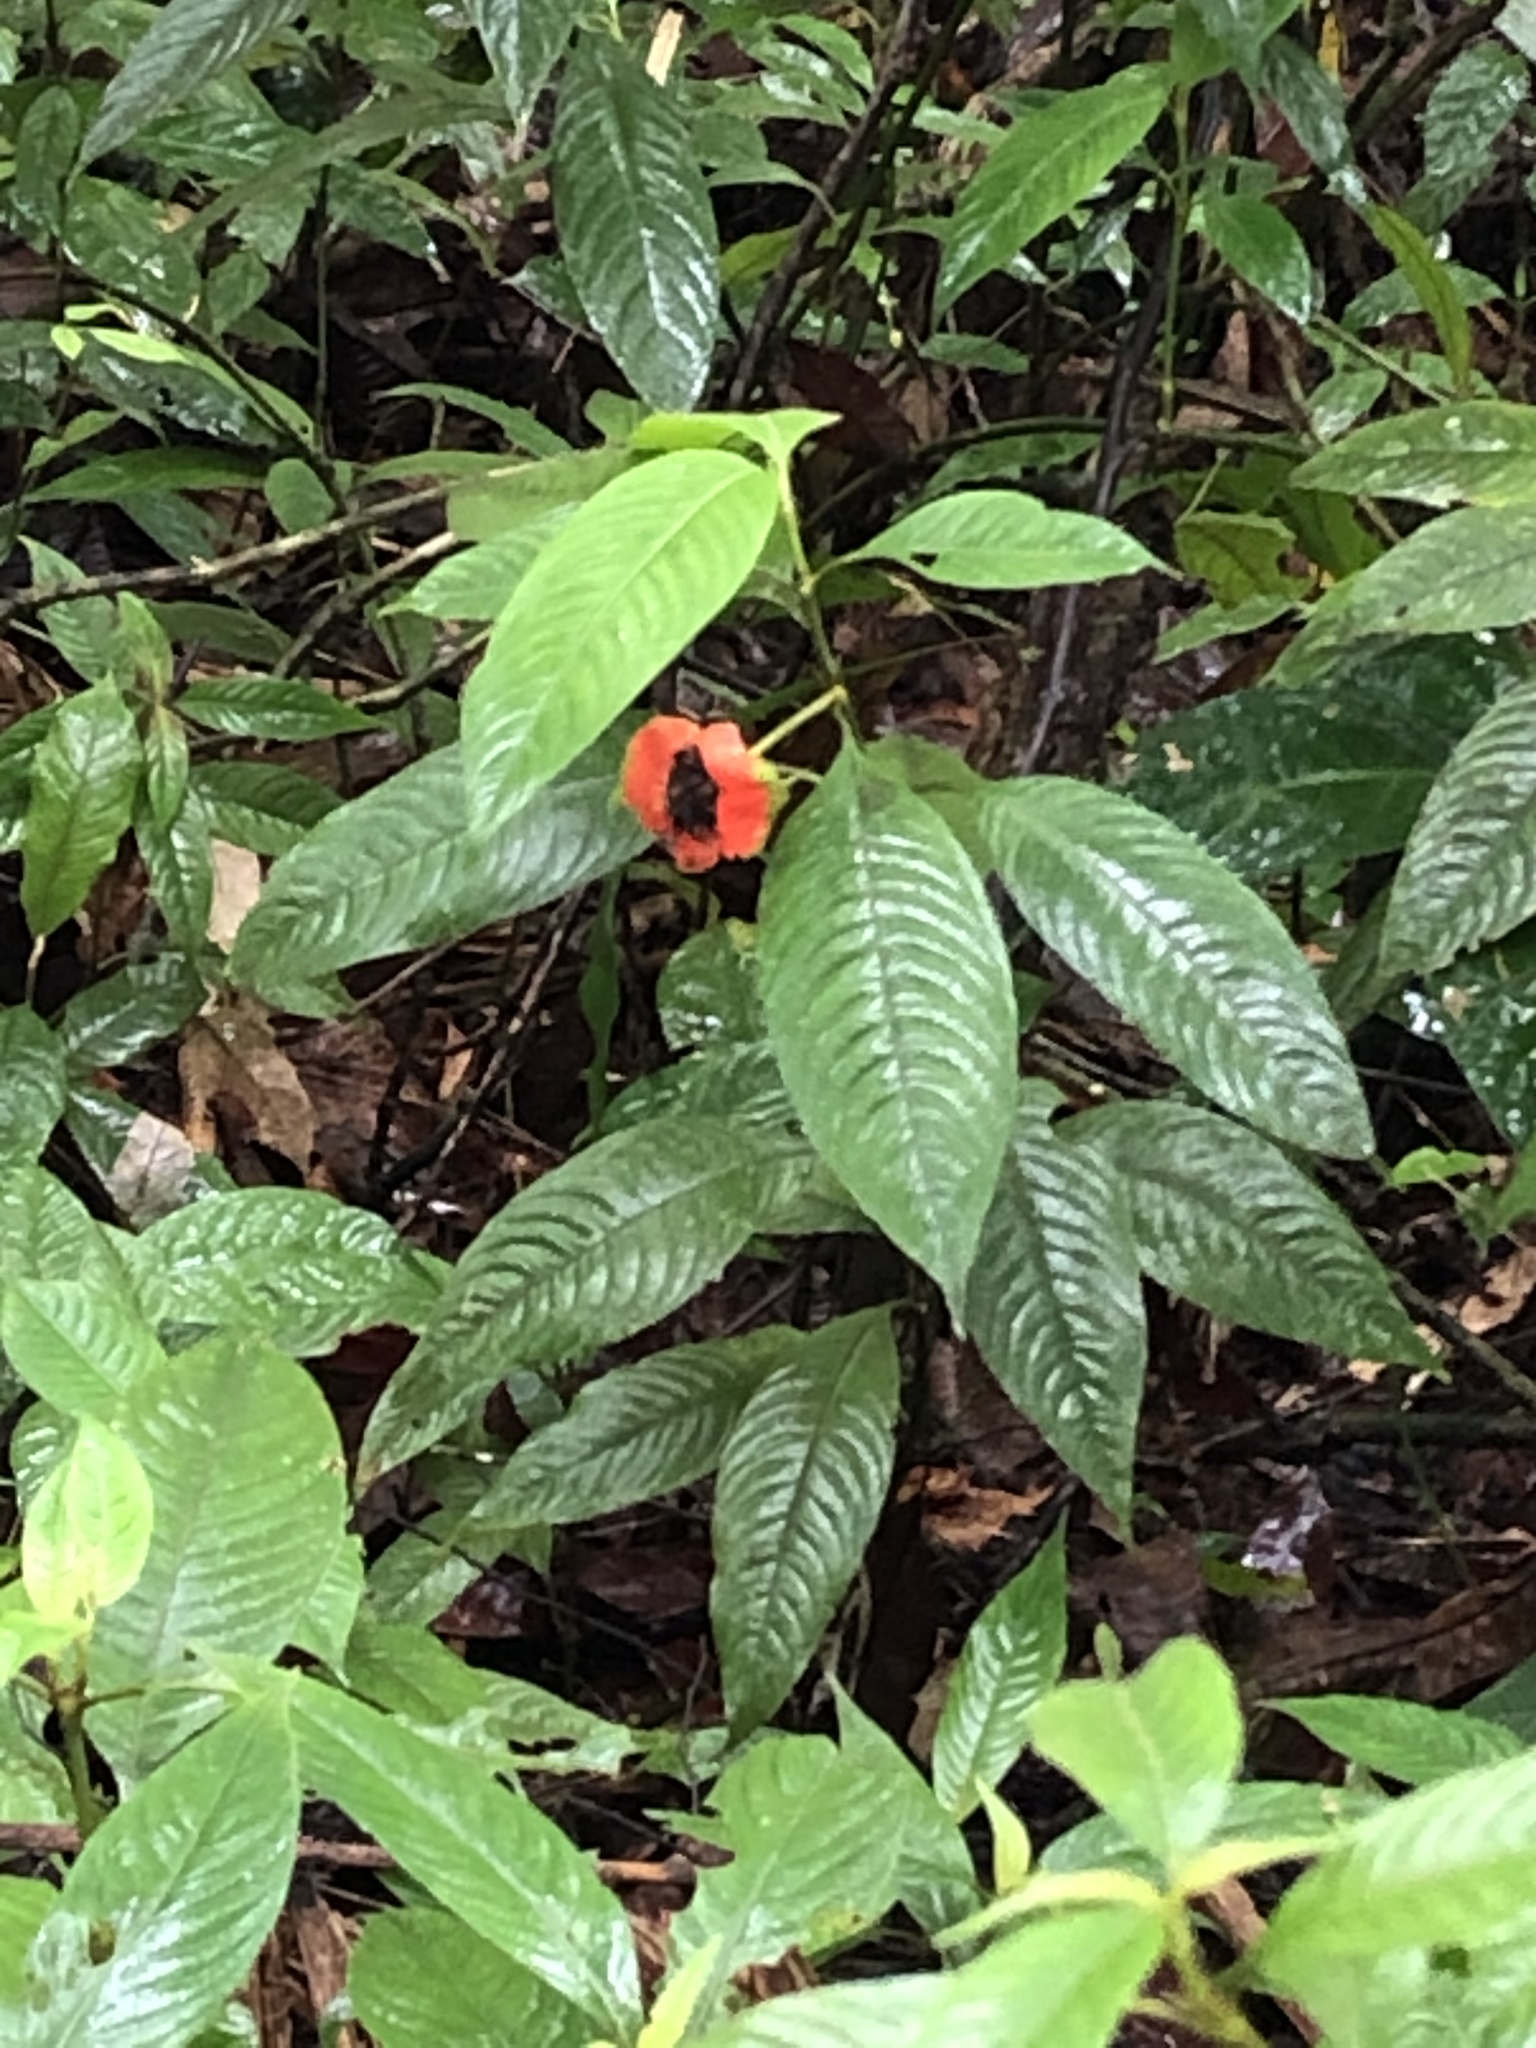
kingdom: Plantae
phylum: Tracheophyta
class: Magnoliopsida
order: Gentianales
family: Rubiaceae
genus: Palicourea
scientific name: Palicourea tomentosa
